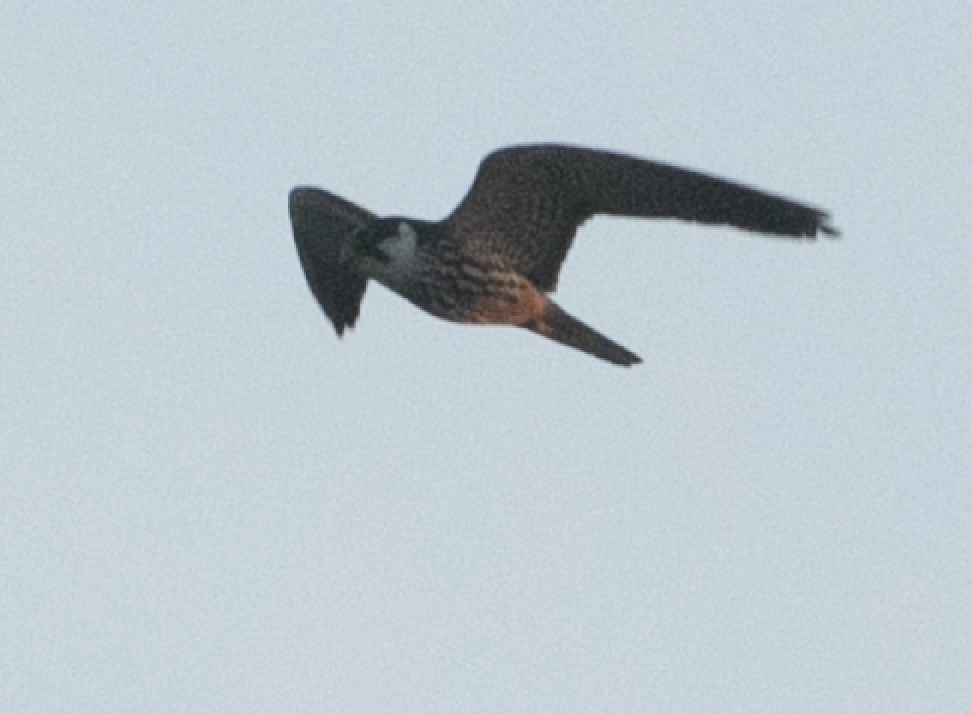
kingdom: Animalia
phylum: Chordata
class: Aves
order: Falconiformes
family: Falconidae
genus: Falco
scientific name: Falco subbuteo
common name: Eurasian hobby
